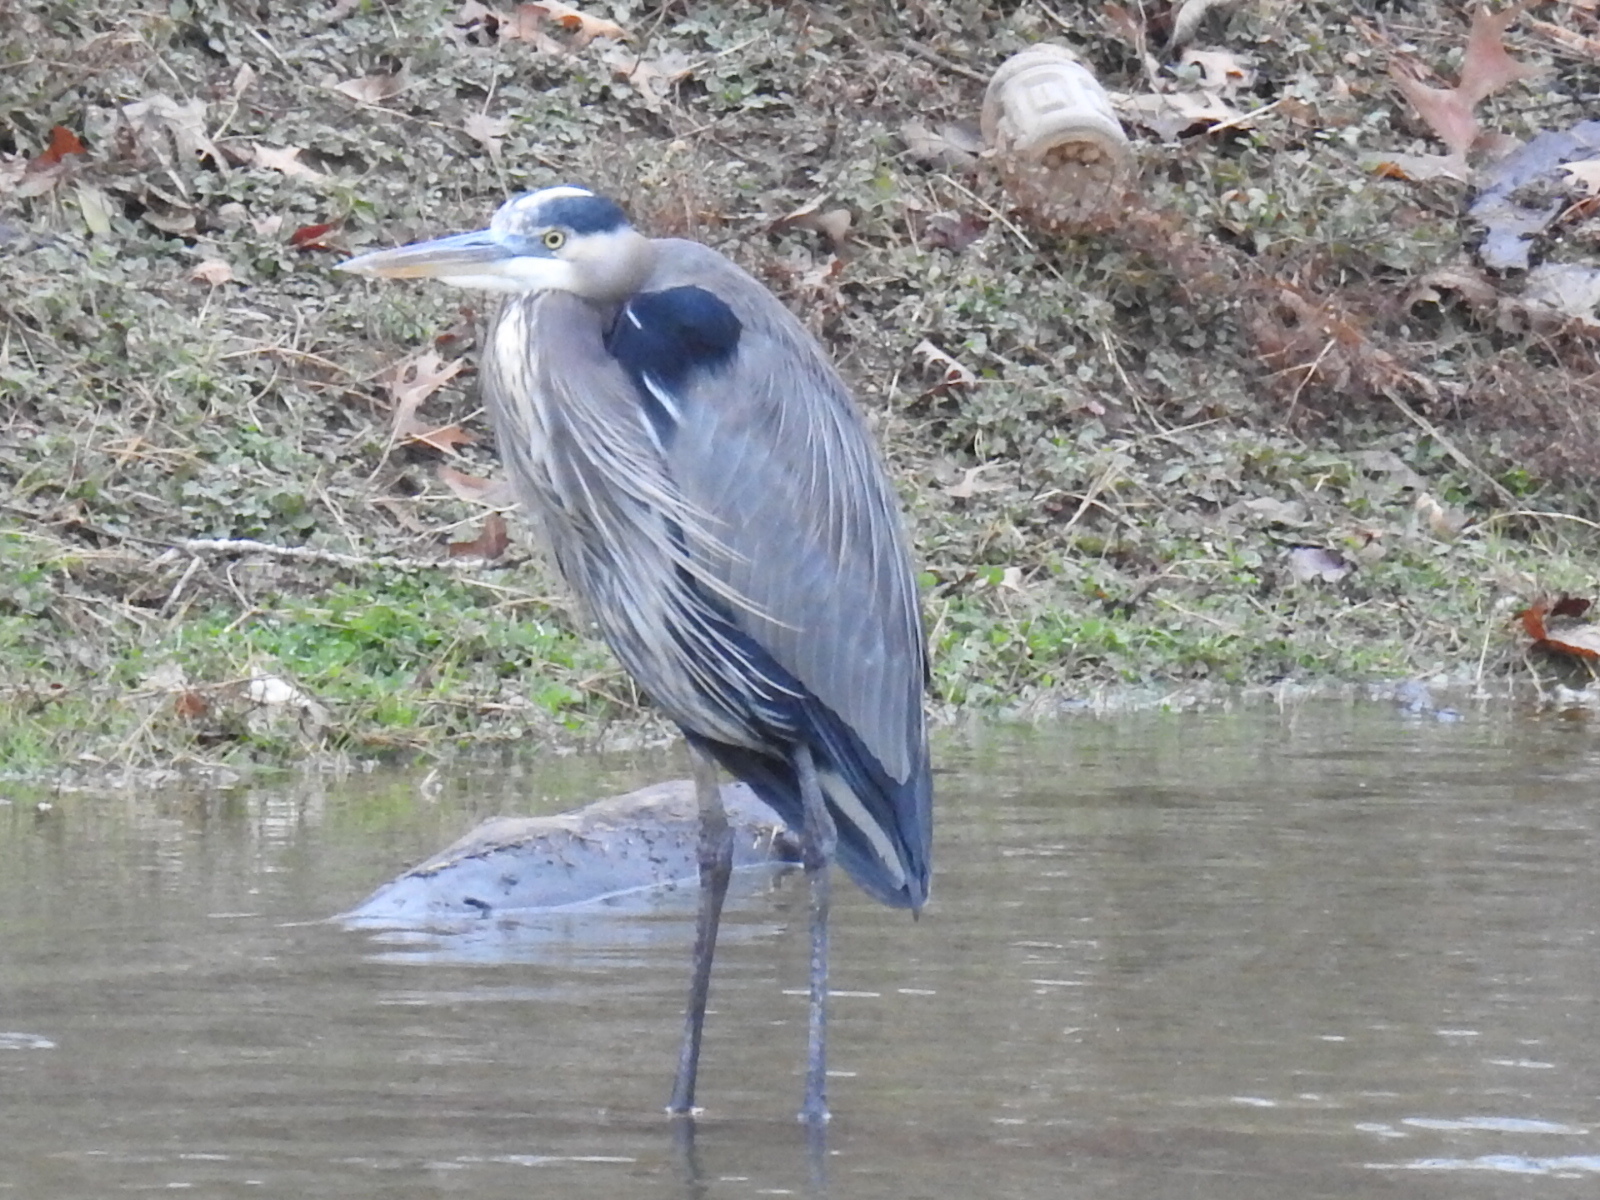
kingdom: Animalia
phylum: Chordata
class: Aves
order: Pelecaniformes
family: Ardeidae
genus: Ardea
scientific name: Ardea herodias
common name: Great blue heron
